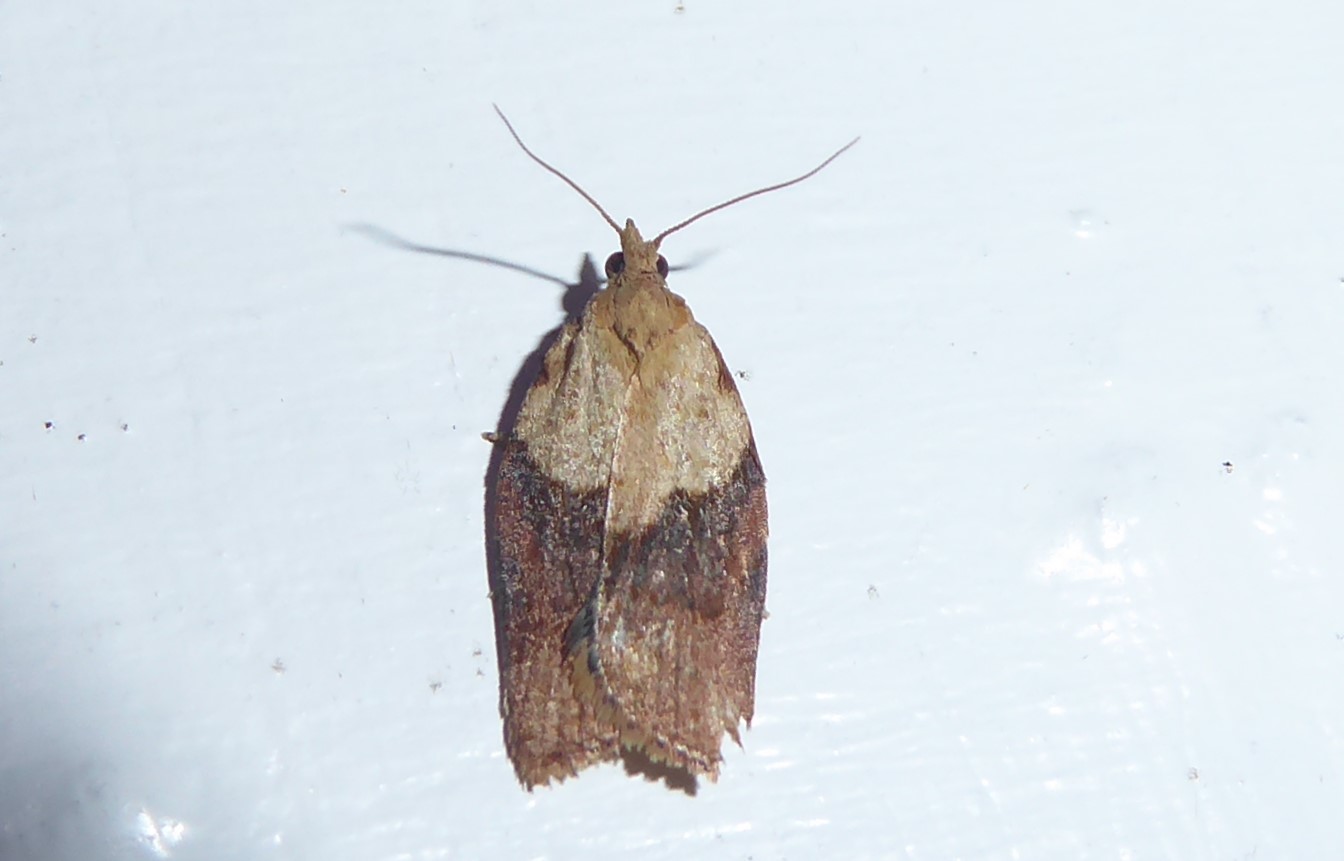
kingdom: Animalia
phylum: Arthropoda
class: Insecta
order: Lepidoptera
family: Tortricidae
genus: Epiphyas
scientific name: Epiphyas postvittana
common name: Light brown apple moth
